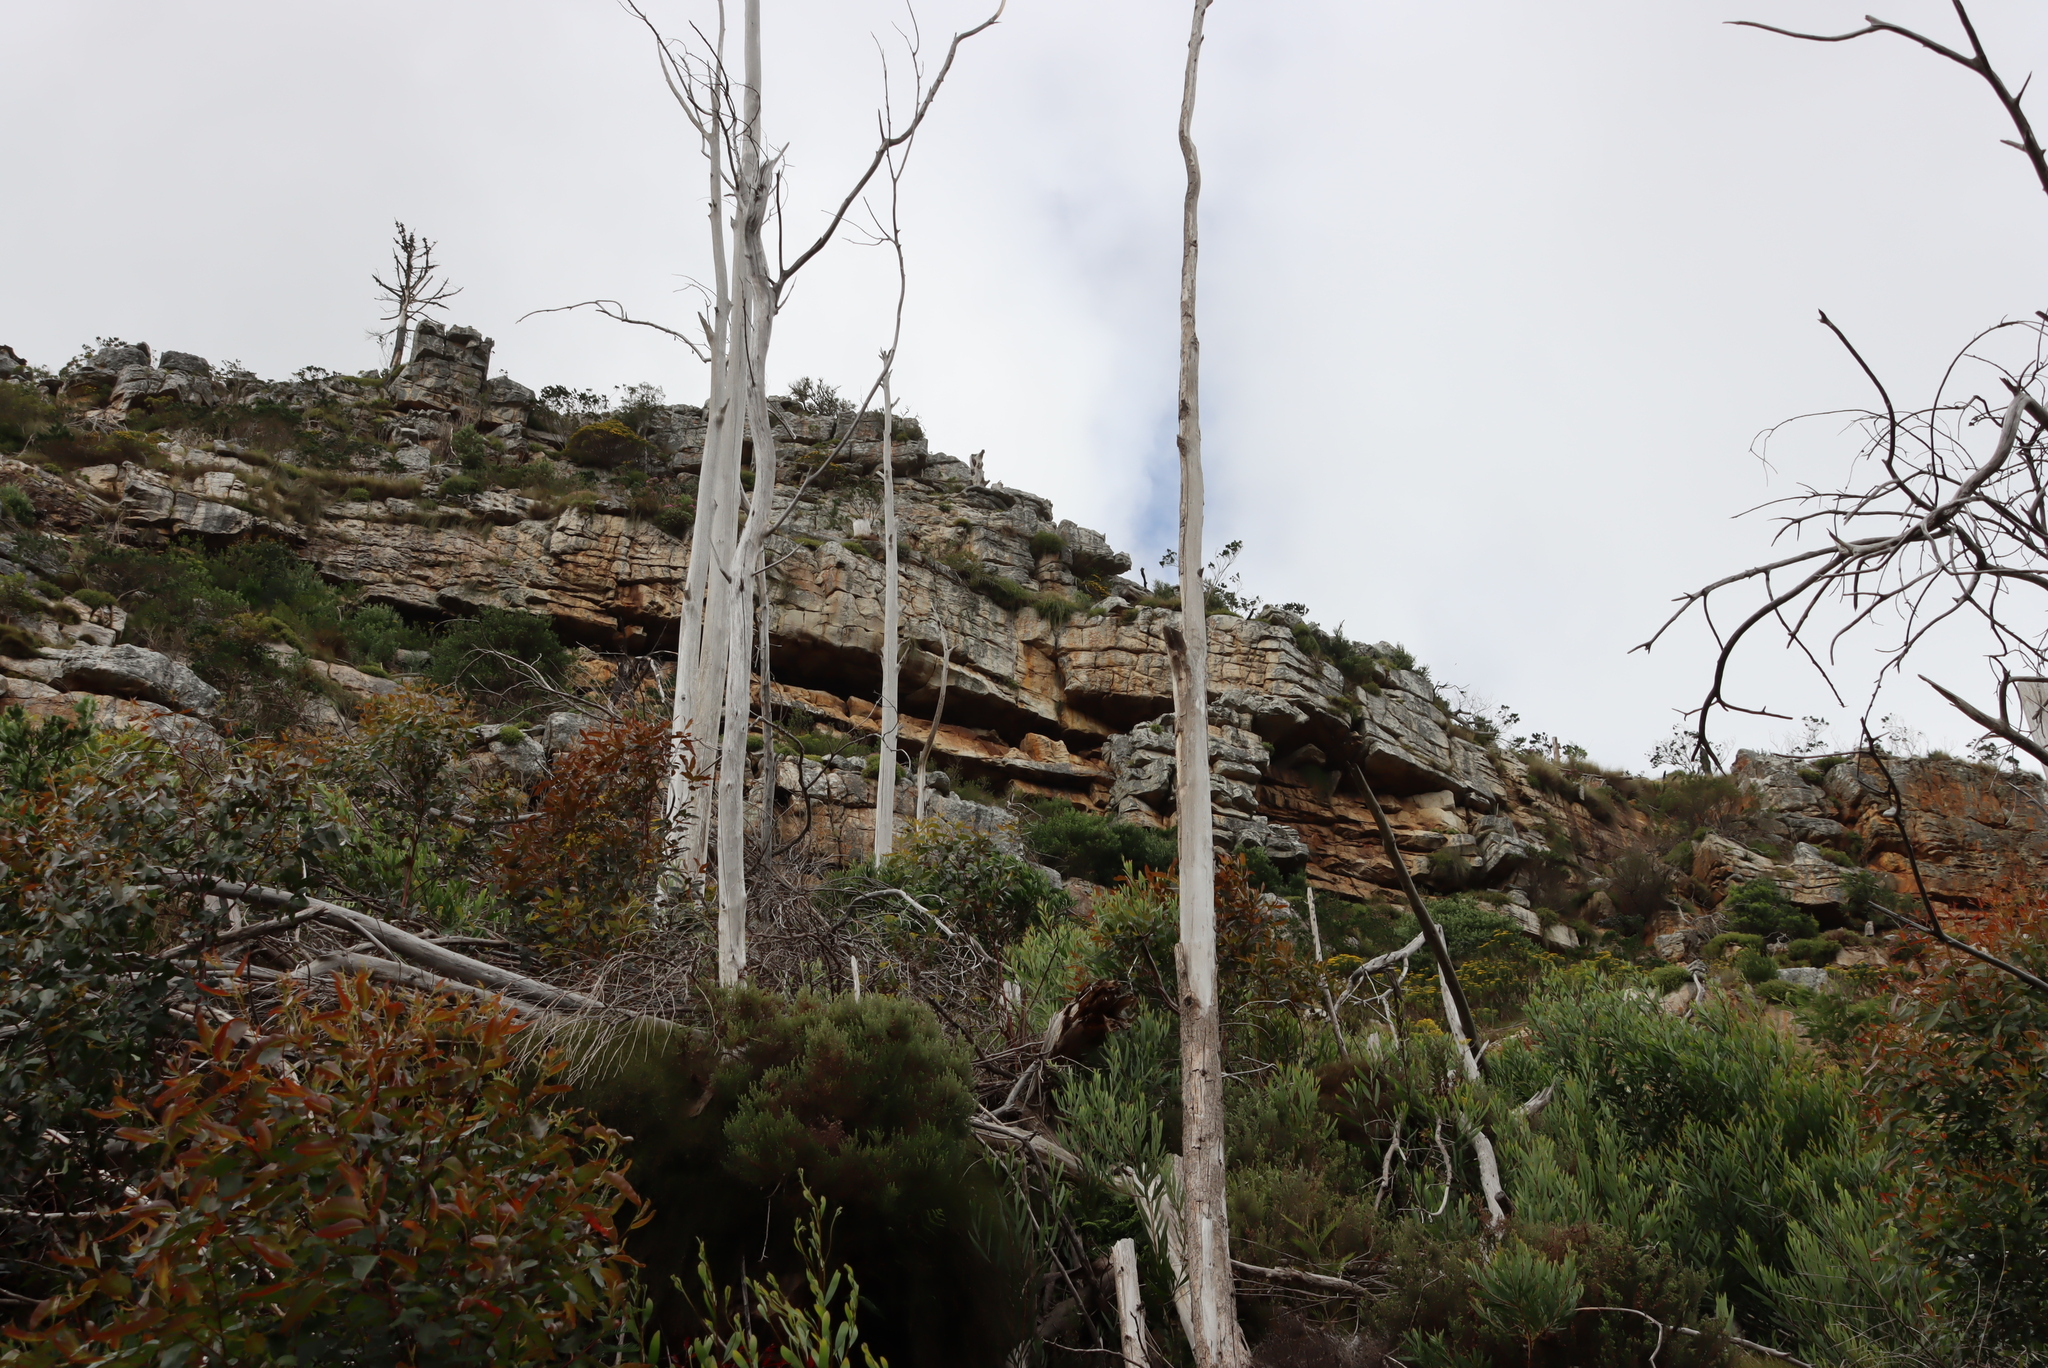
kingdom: Animalia
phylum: Chordata
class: Mammalia
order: Hyracoidea
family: Procaviidae
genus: Procavia
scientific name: Procavia capensis
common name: Rock hyrax
